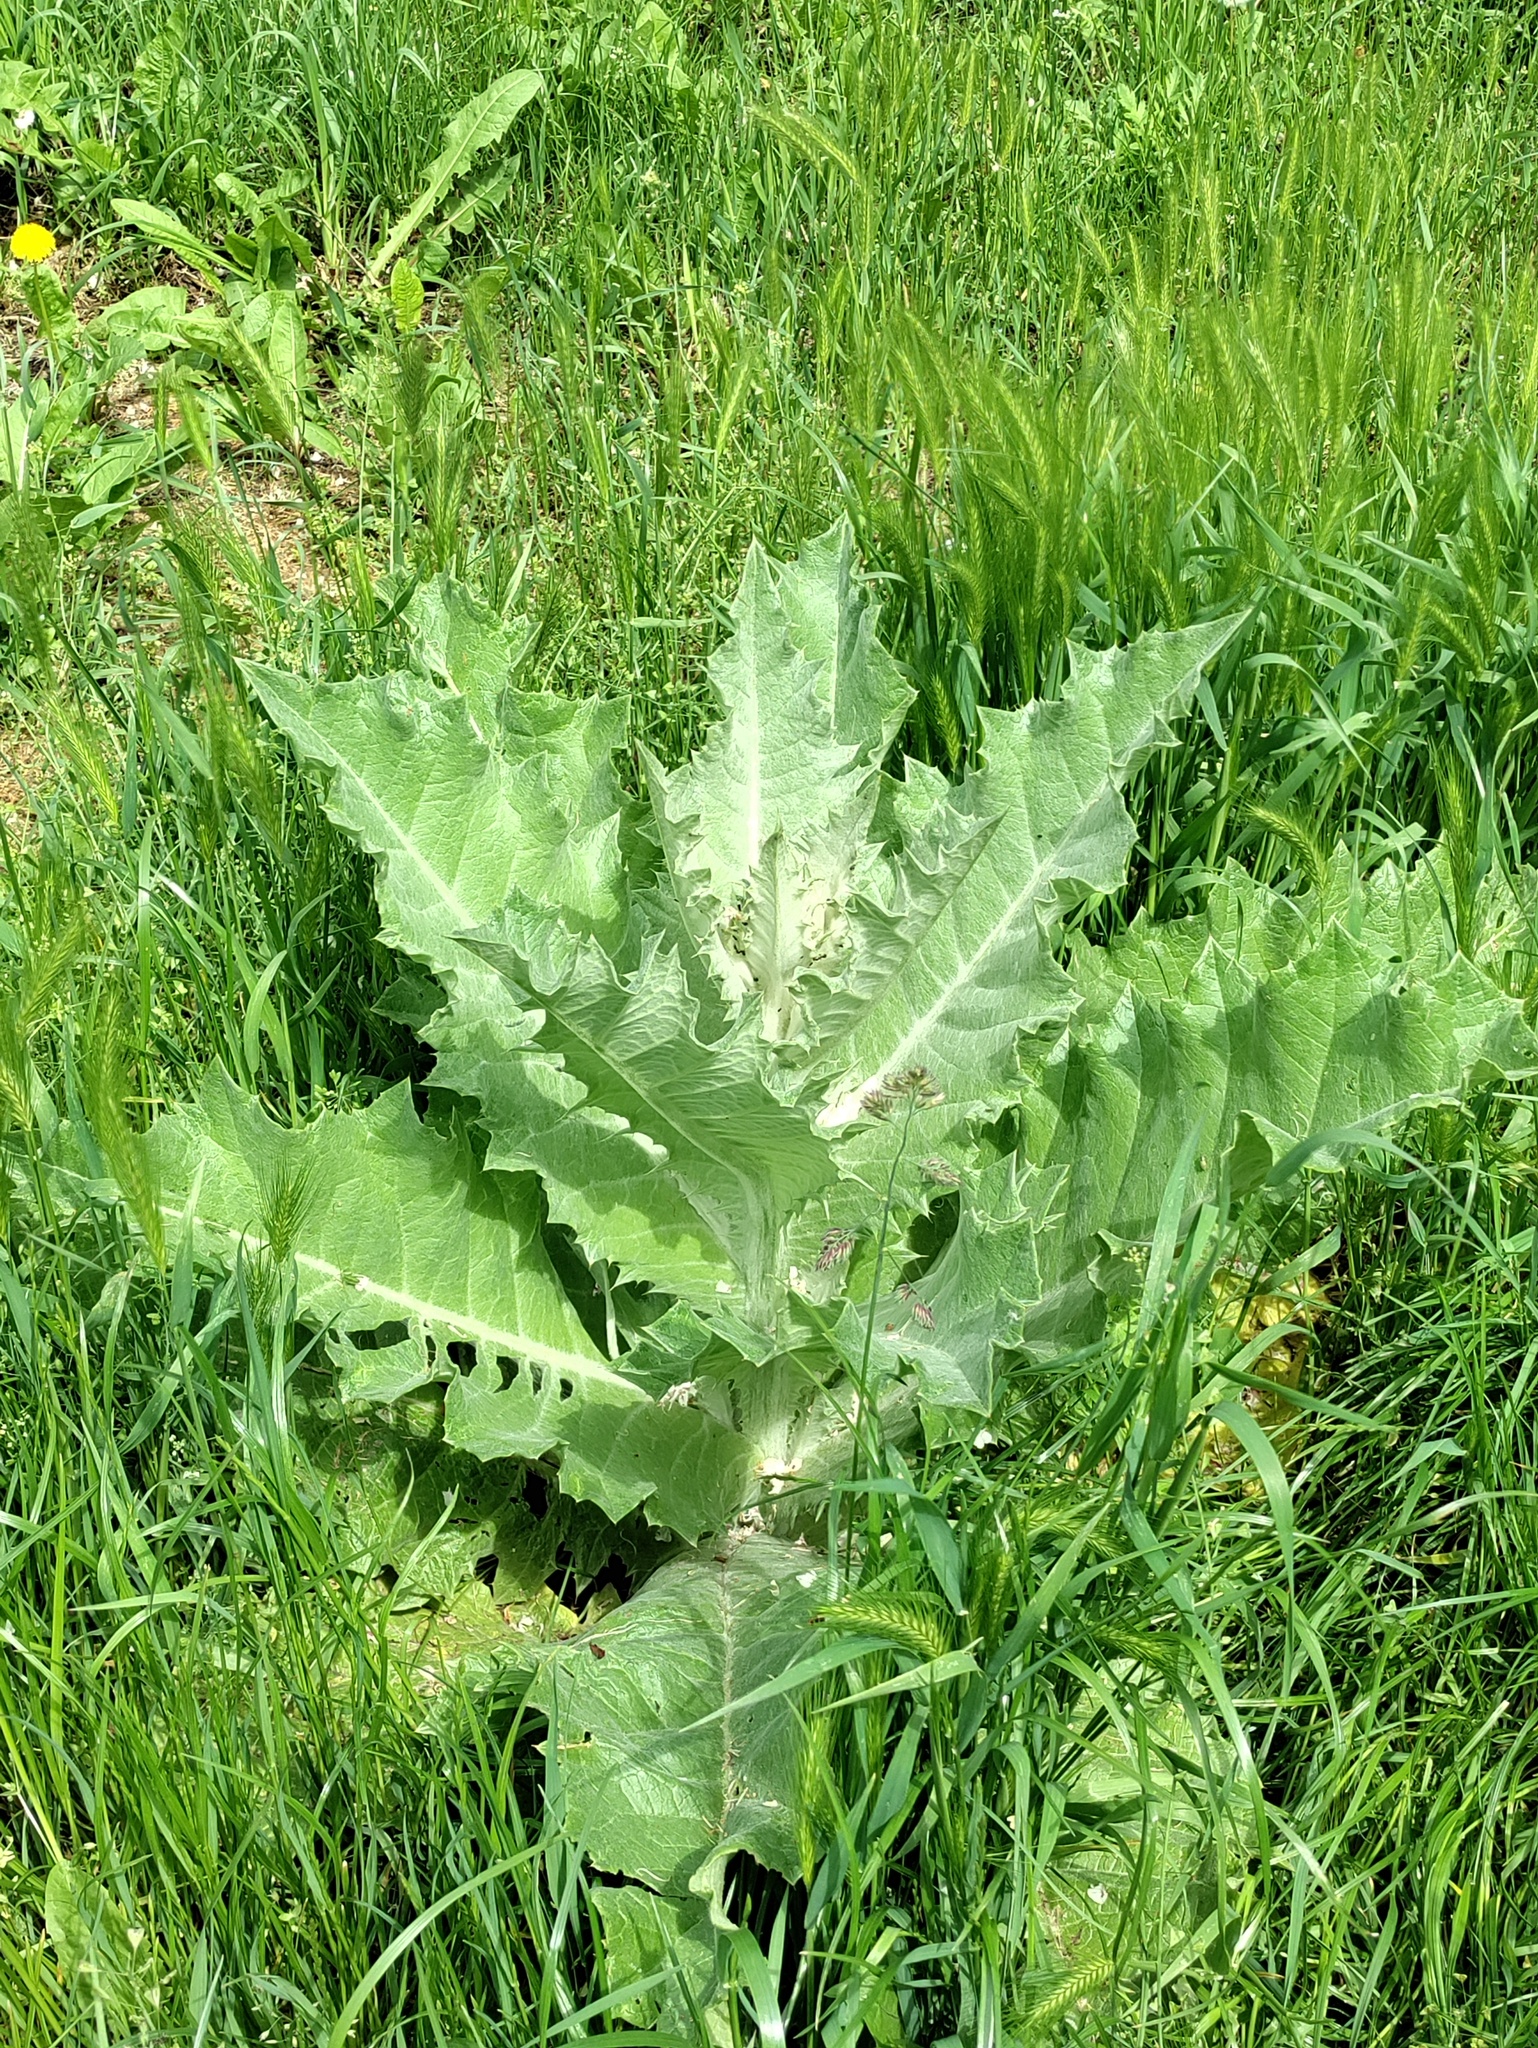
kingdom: Plantae
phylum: Tracheophyta
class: Magnoliopsida
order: Asterales
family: Asteraceae
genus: Onopordum
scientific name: Onopordum acanthium
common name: Scotch thistle
